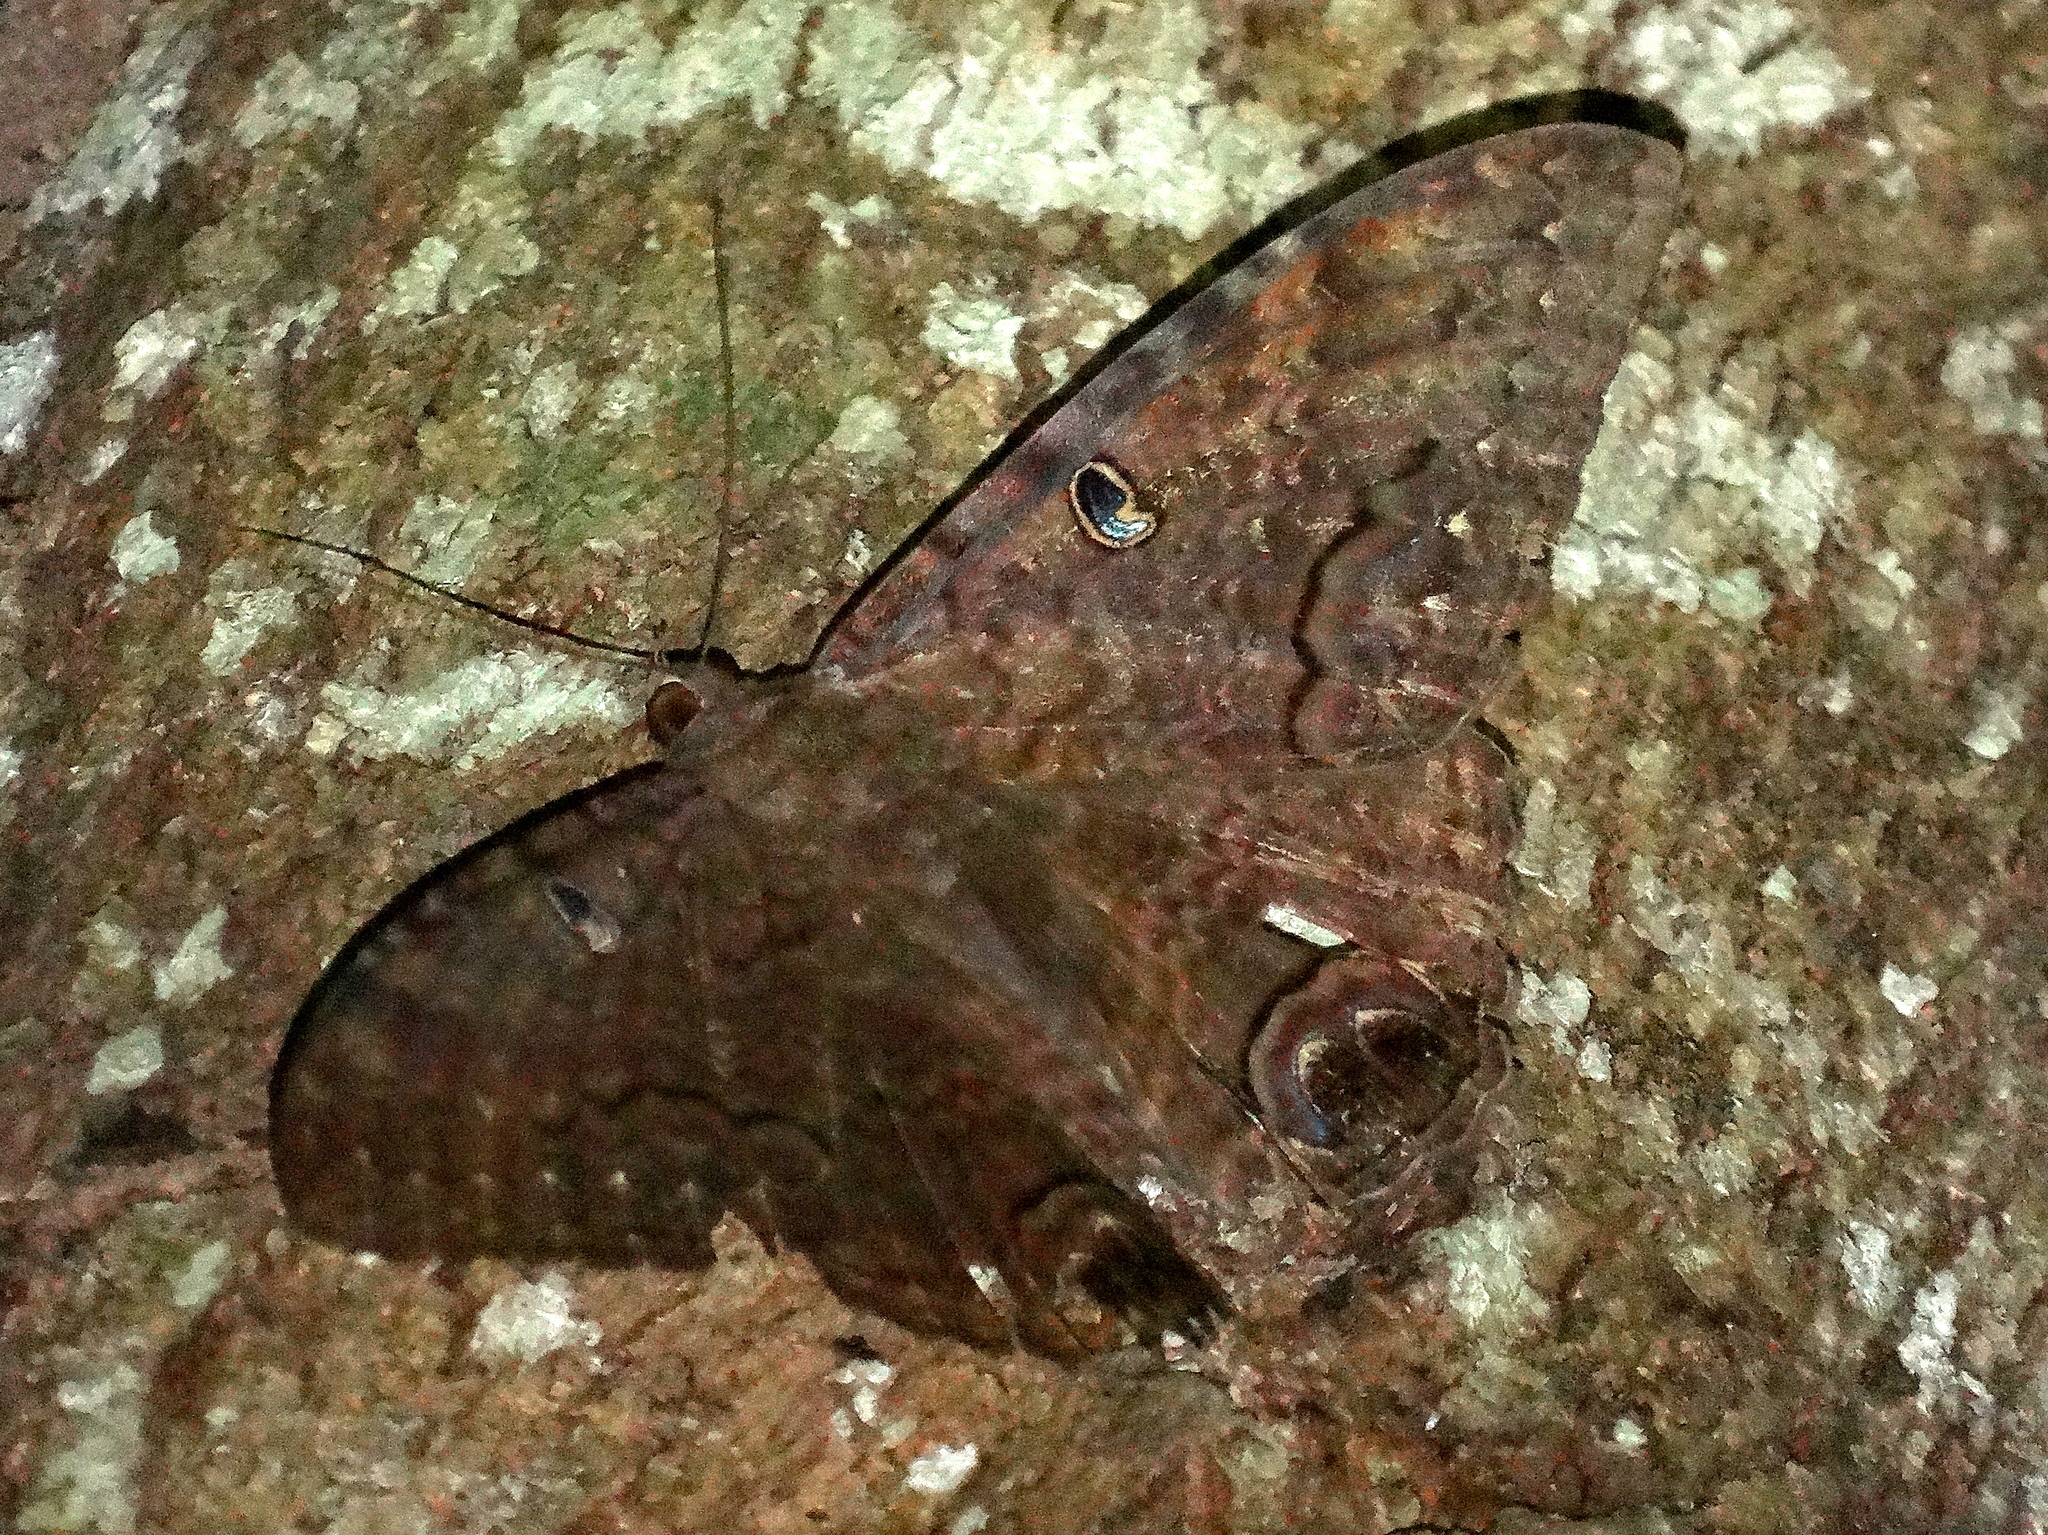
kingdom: Animalia
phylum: Arthropoda
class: Insecta
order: Lepidoptera
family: Erebidae
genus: Ascalapha
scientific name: Ascalapha odorata
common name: Black witch
